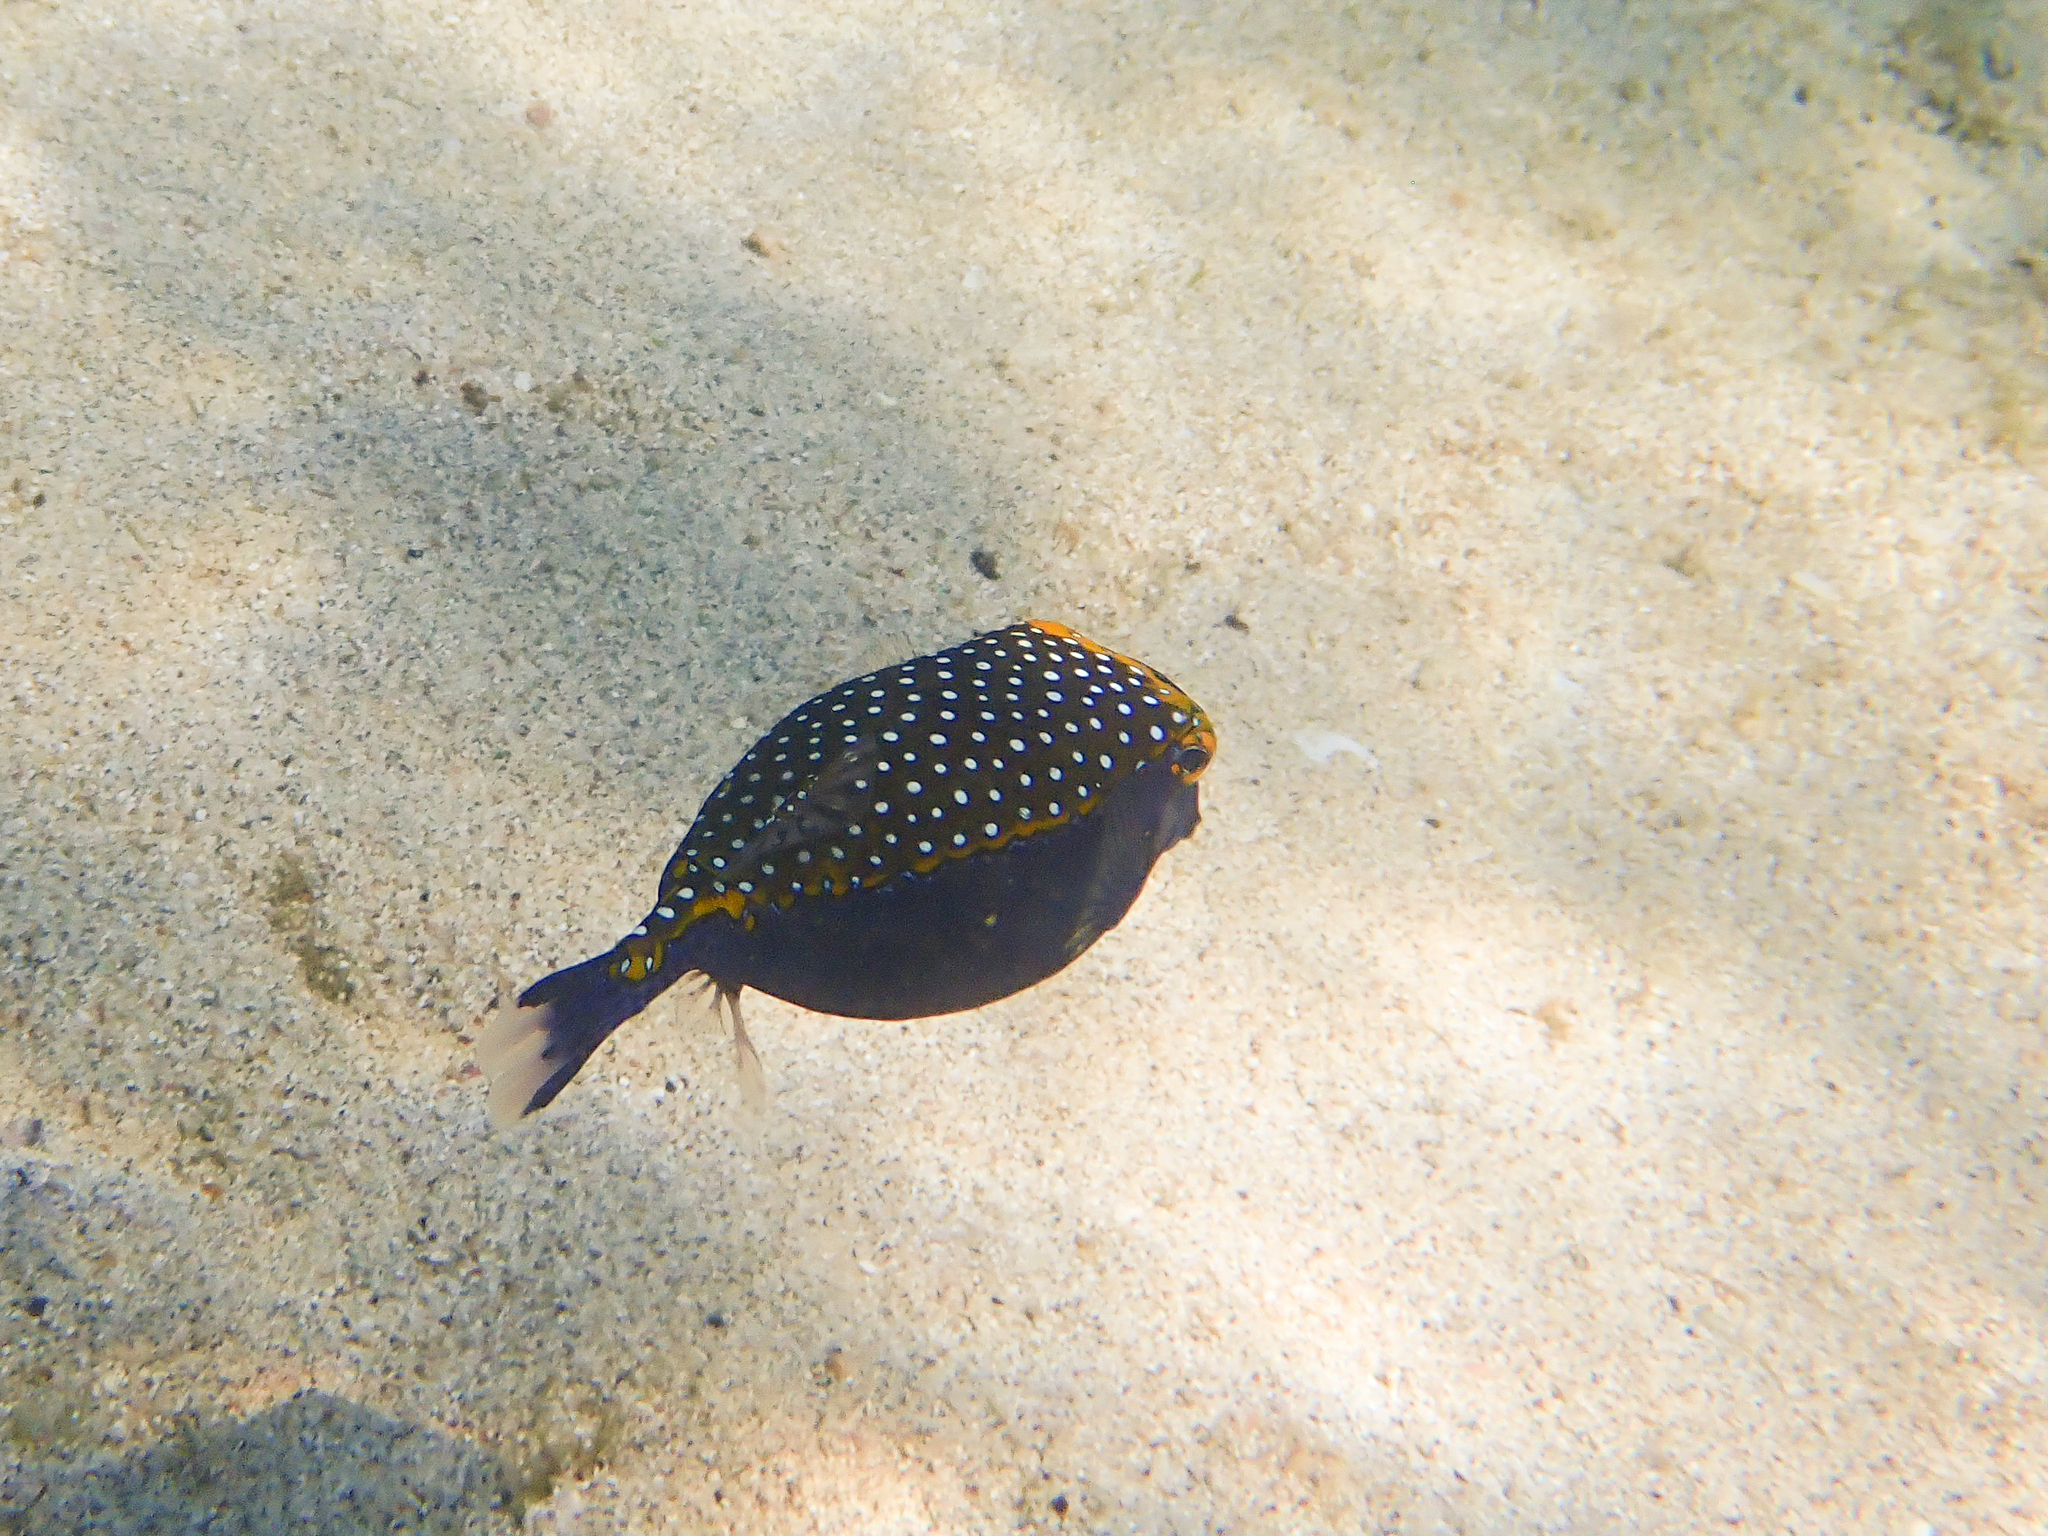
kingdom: Animalia
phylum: Chordata
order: Tetraodontiformes
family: Ostraciidae
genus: Ostracion
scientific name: Ostracion meleagris
